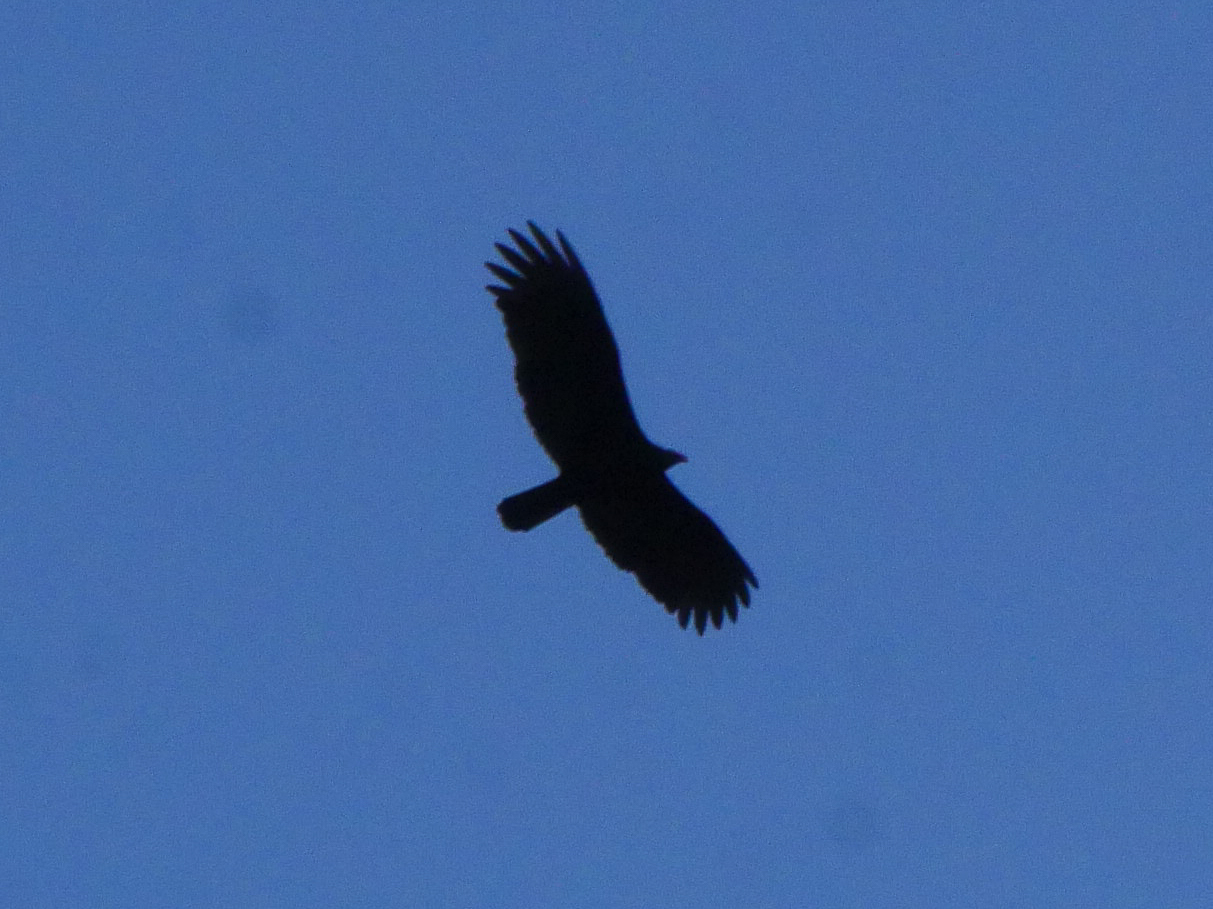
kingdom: Animalia
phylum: Chordata
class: Aves
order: Accipitriformes
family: Cathartidae
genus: Cathartes
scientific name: Cathartes aura
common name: Turkey vulture
